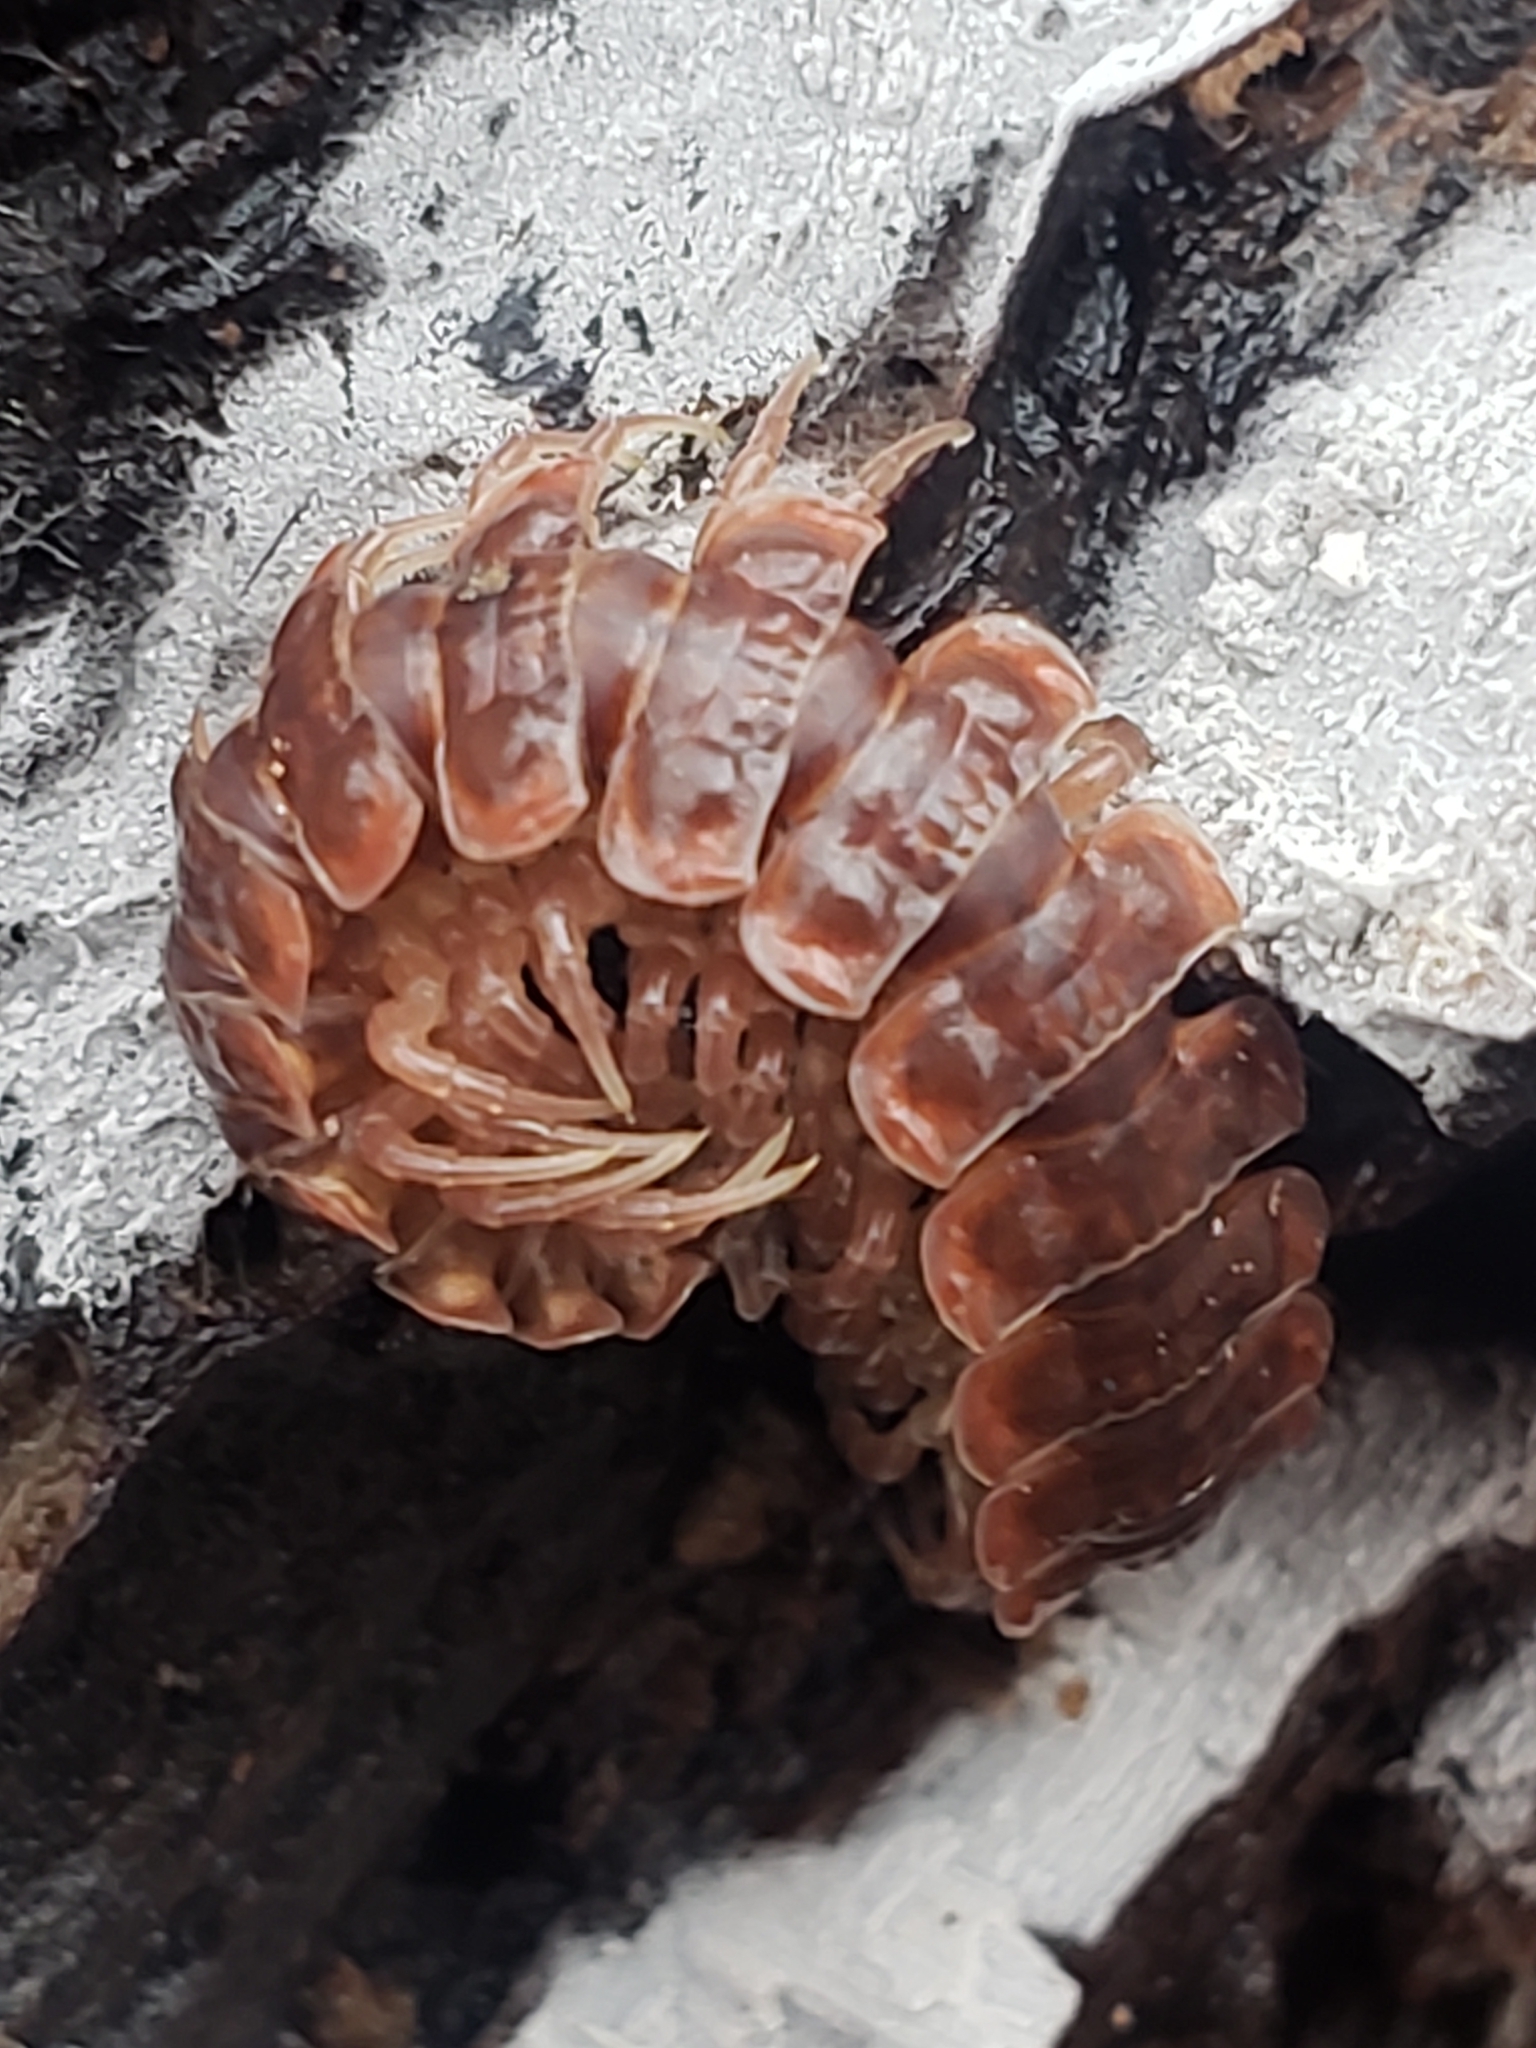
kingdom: Animalia
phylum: Arthropoda
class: Diplopoda
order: Polydesmida
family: Polydesmidae
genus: Pseudopolydesmus
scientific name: Pseudopolydesmus serratus
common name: Common pink flat-back millipede
